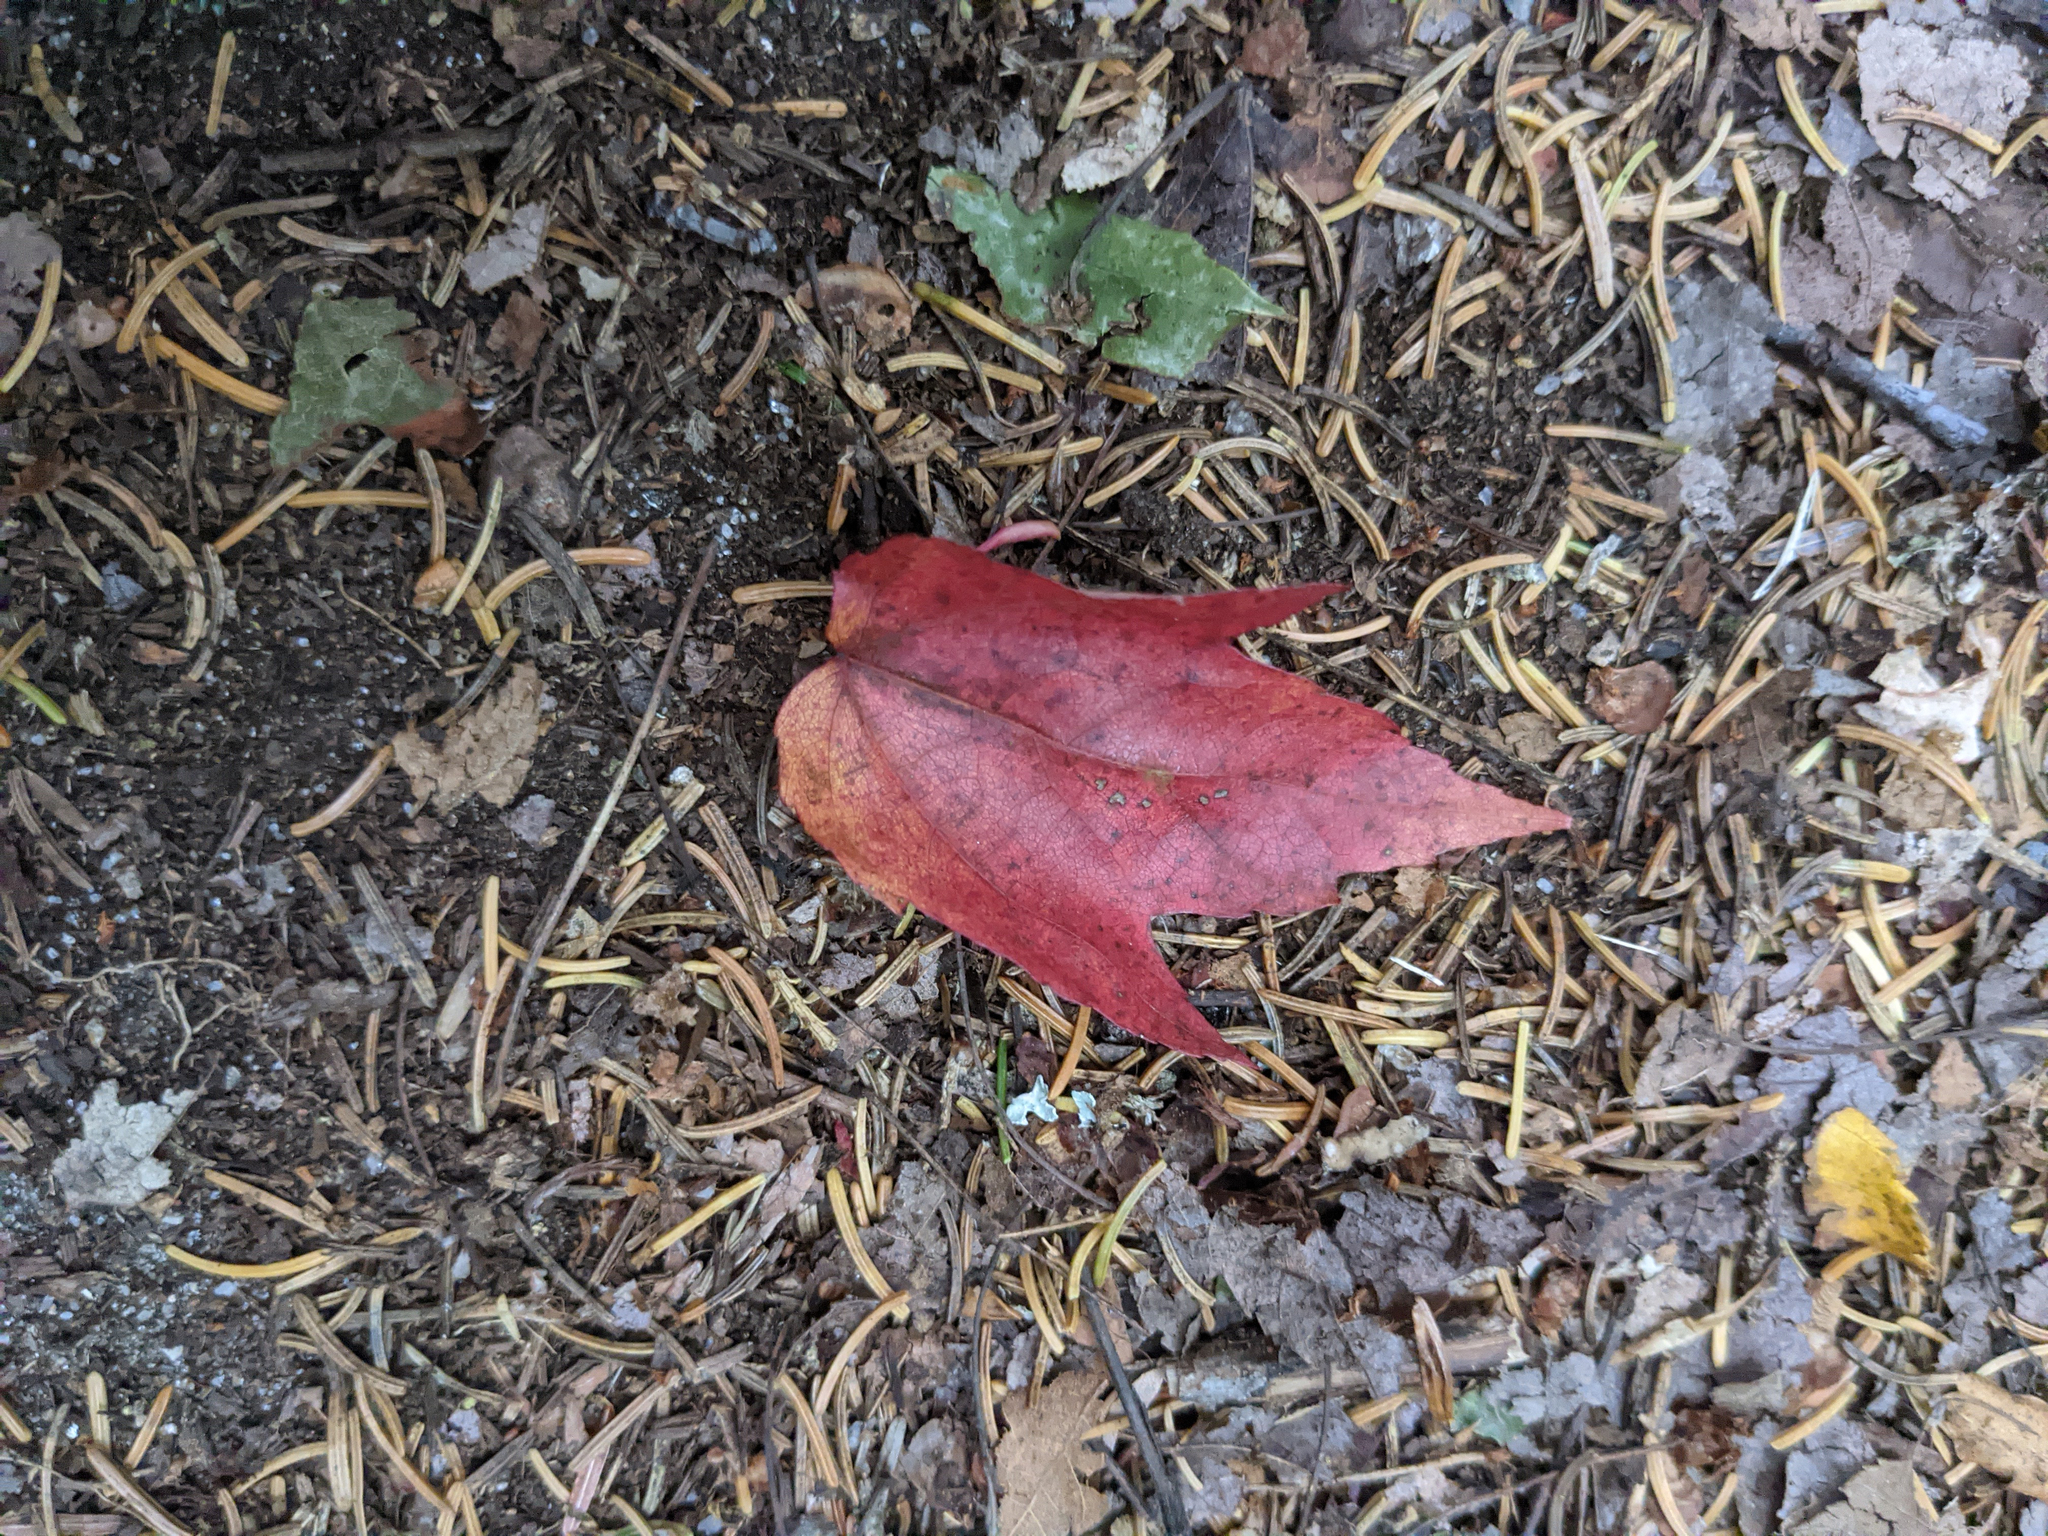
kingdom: Plantae
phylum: Tracheophyta
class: Magnoliopsida
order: Sapindales
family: Sapindaceae
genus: Acer
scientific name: Acer rubrum
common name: Red maple
